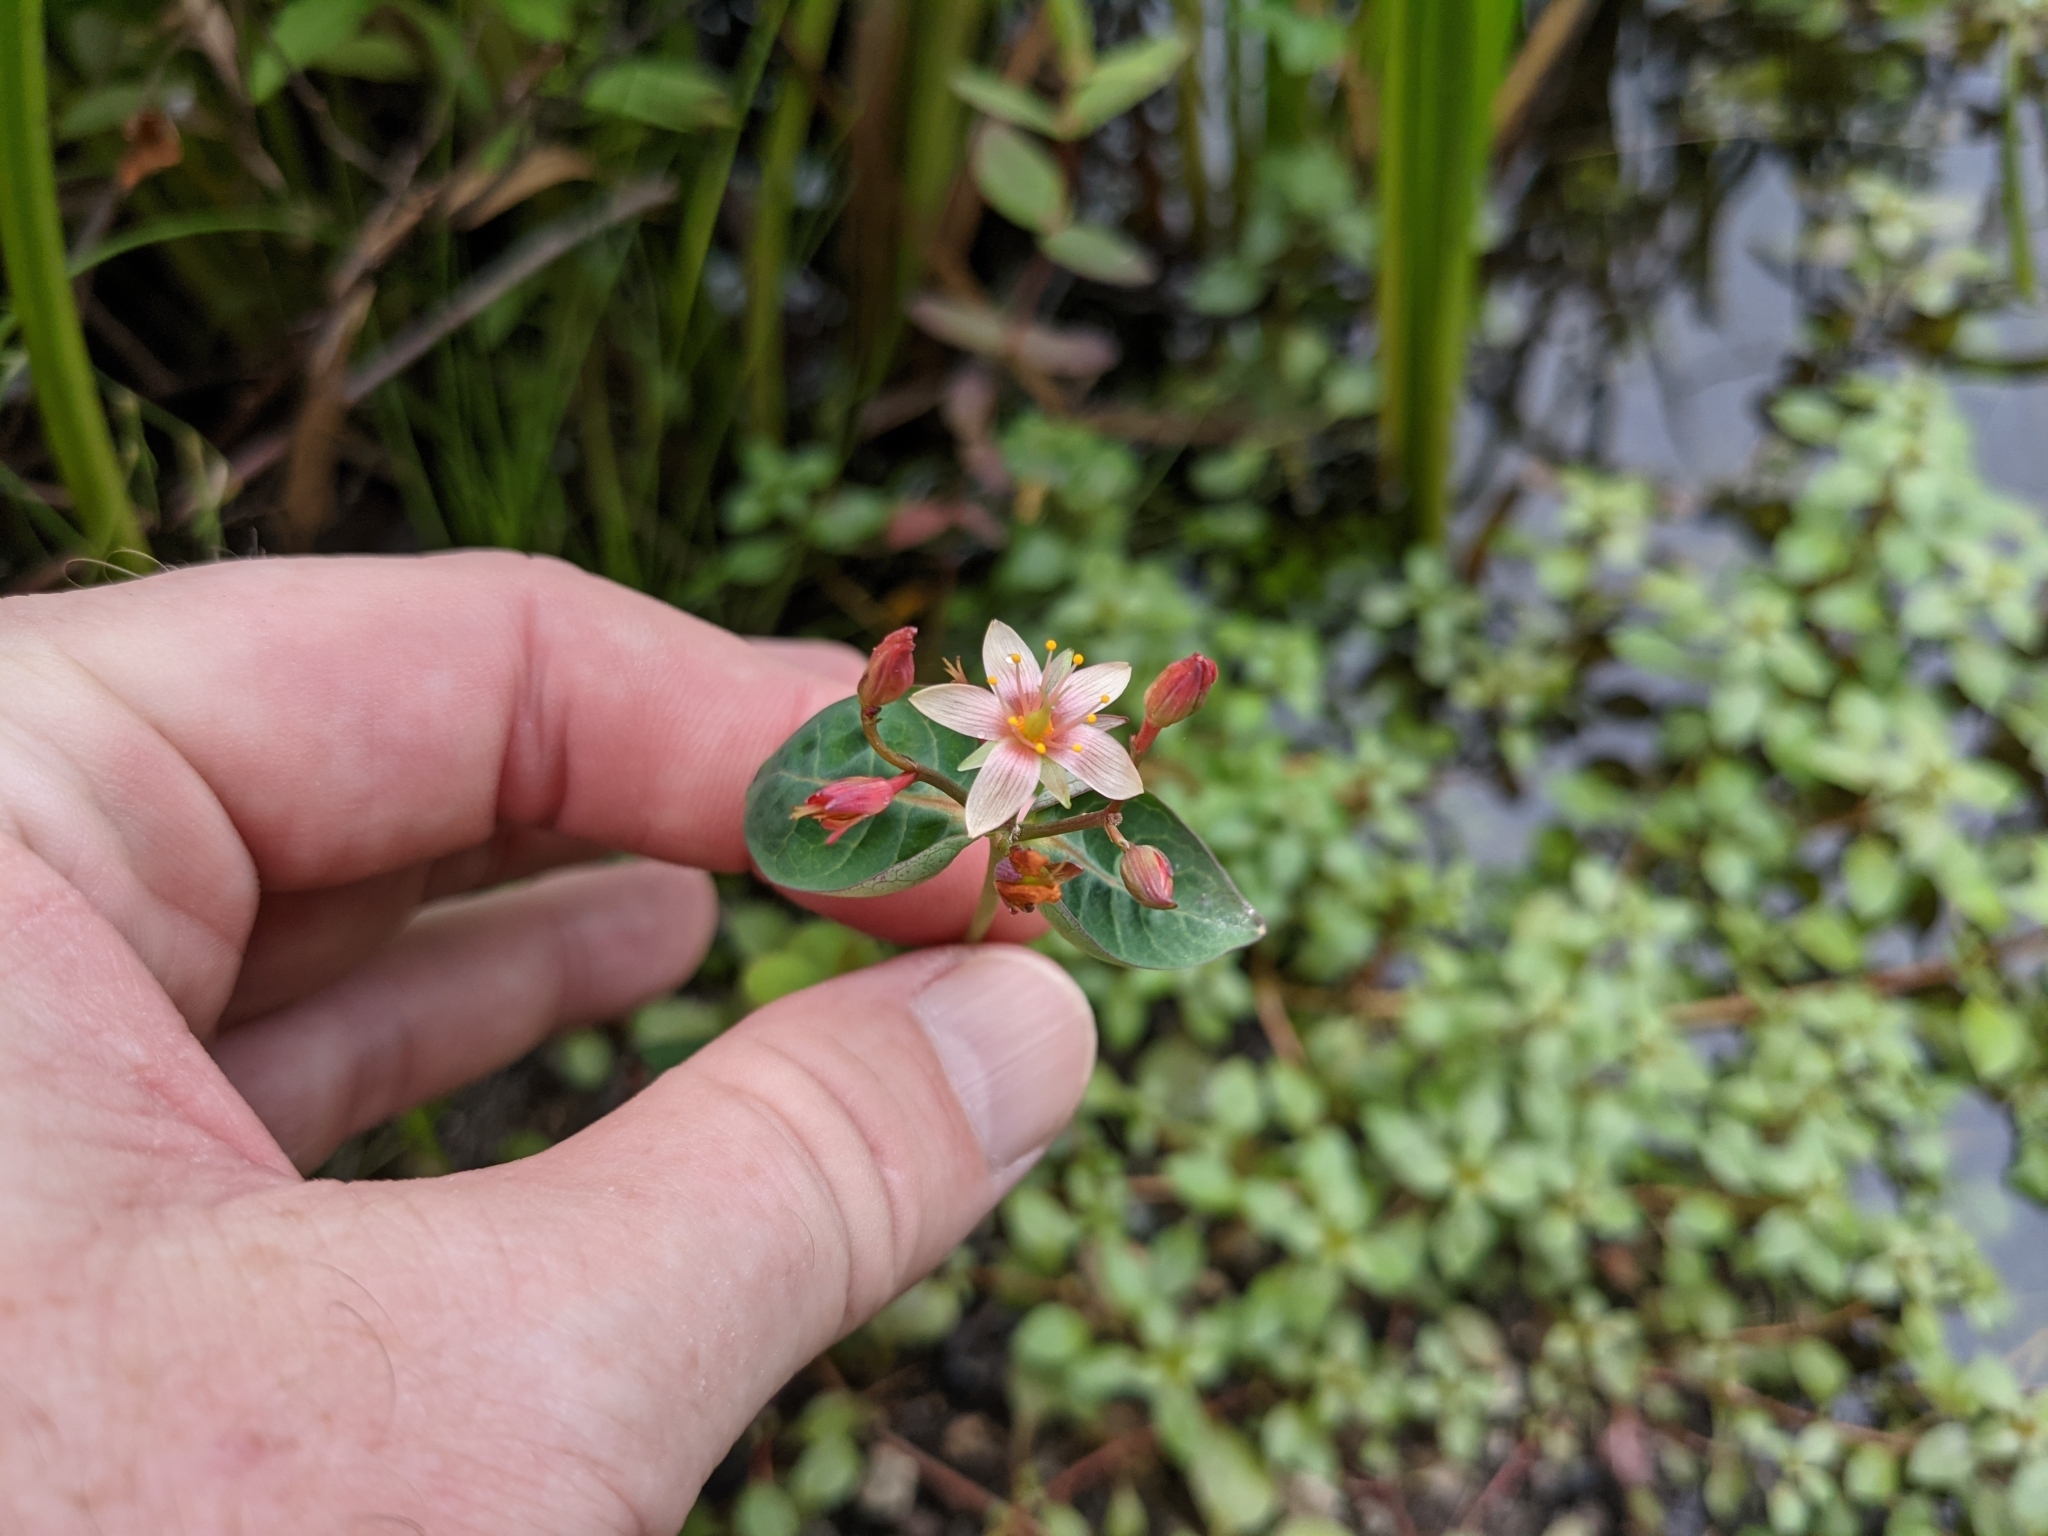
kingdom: Plantae
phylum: Tracheophyta
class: Magnoliopsida
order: Malpighiales
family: Hypericaceae
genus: Triadenum
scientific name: Triadenum virginicum
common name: Marsh st. john's-wort
